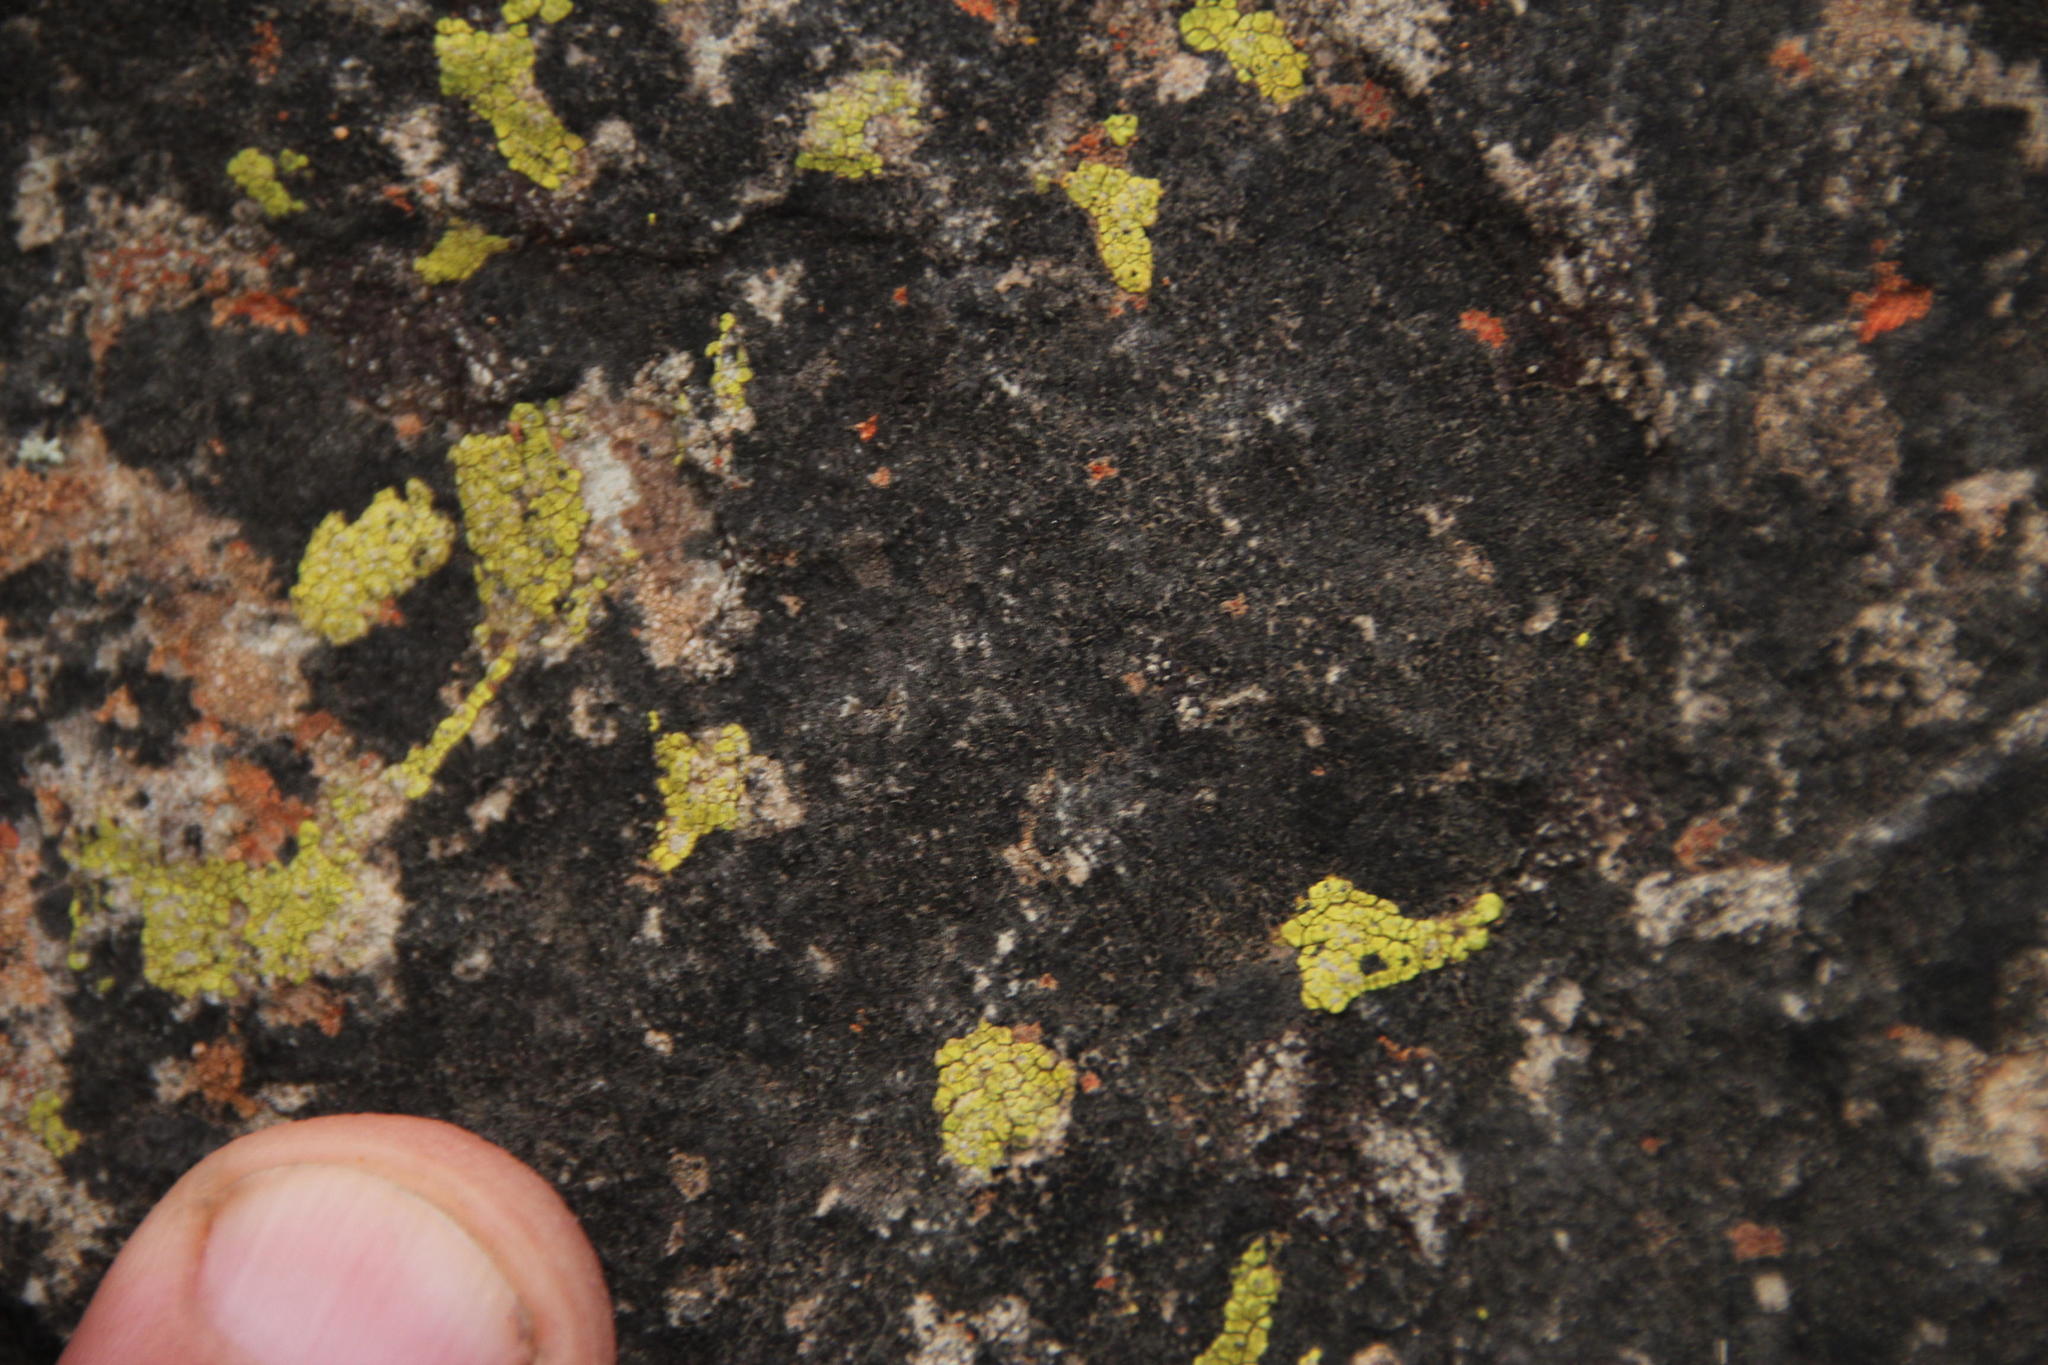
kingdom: Fungi
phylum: Ascomycota
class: Eurotiomycetes
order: Verrucariales
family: Verrucariaceae
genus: Verrucaria
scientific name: Verrucaria nigrescens
